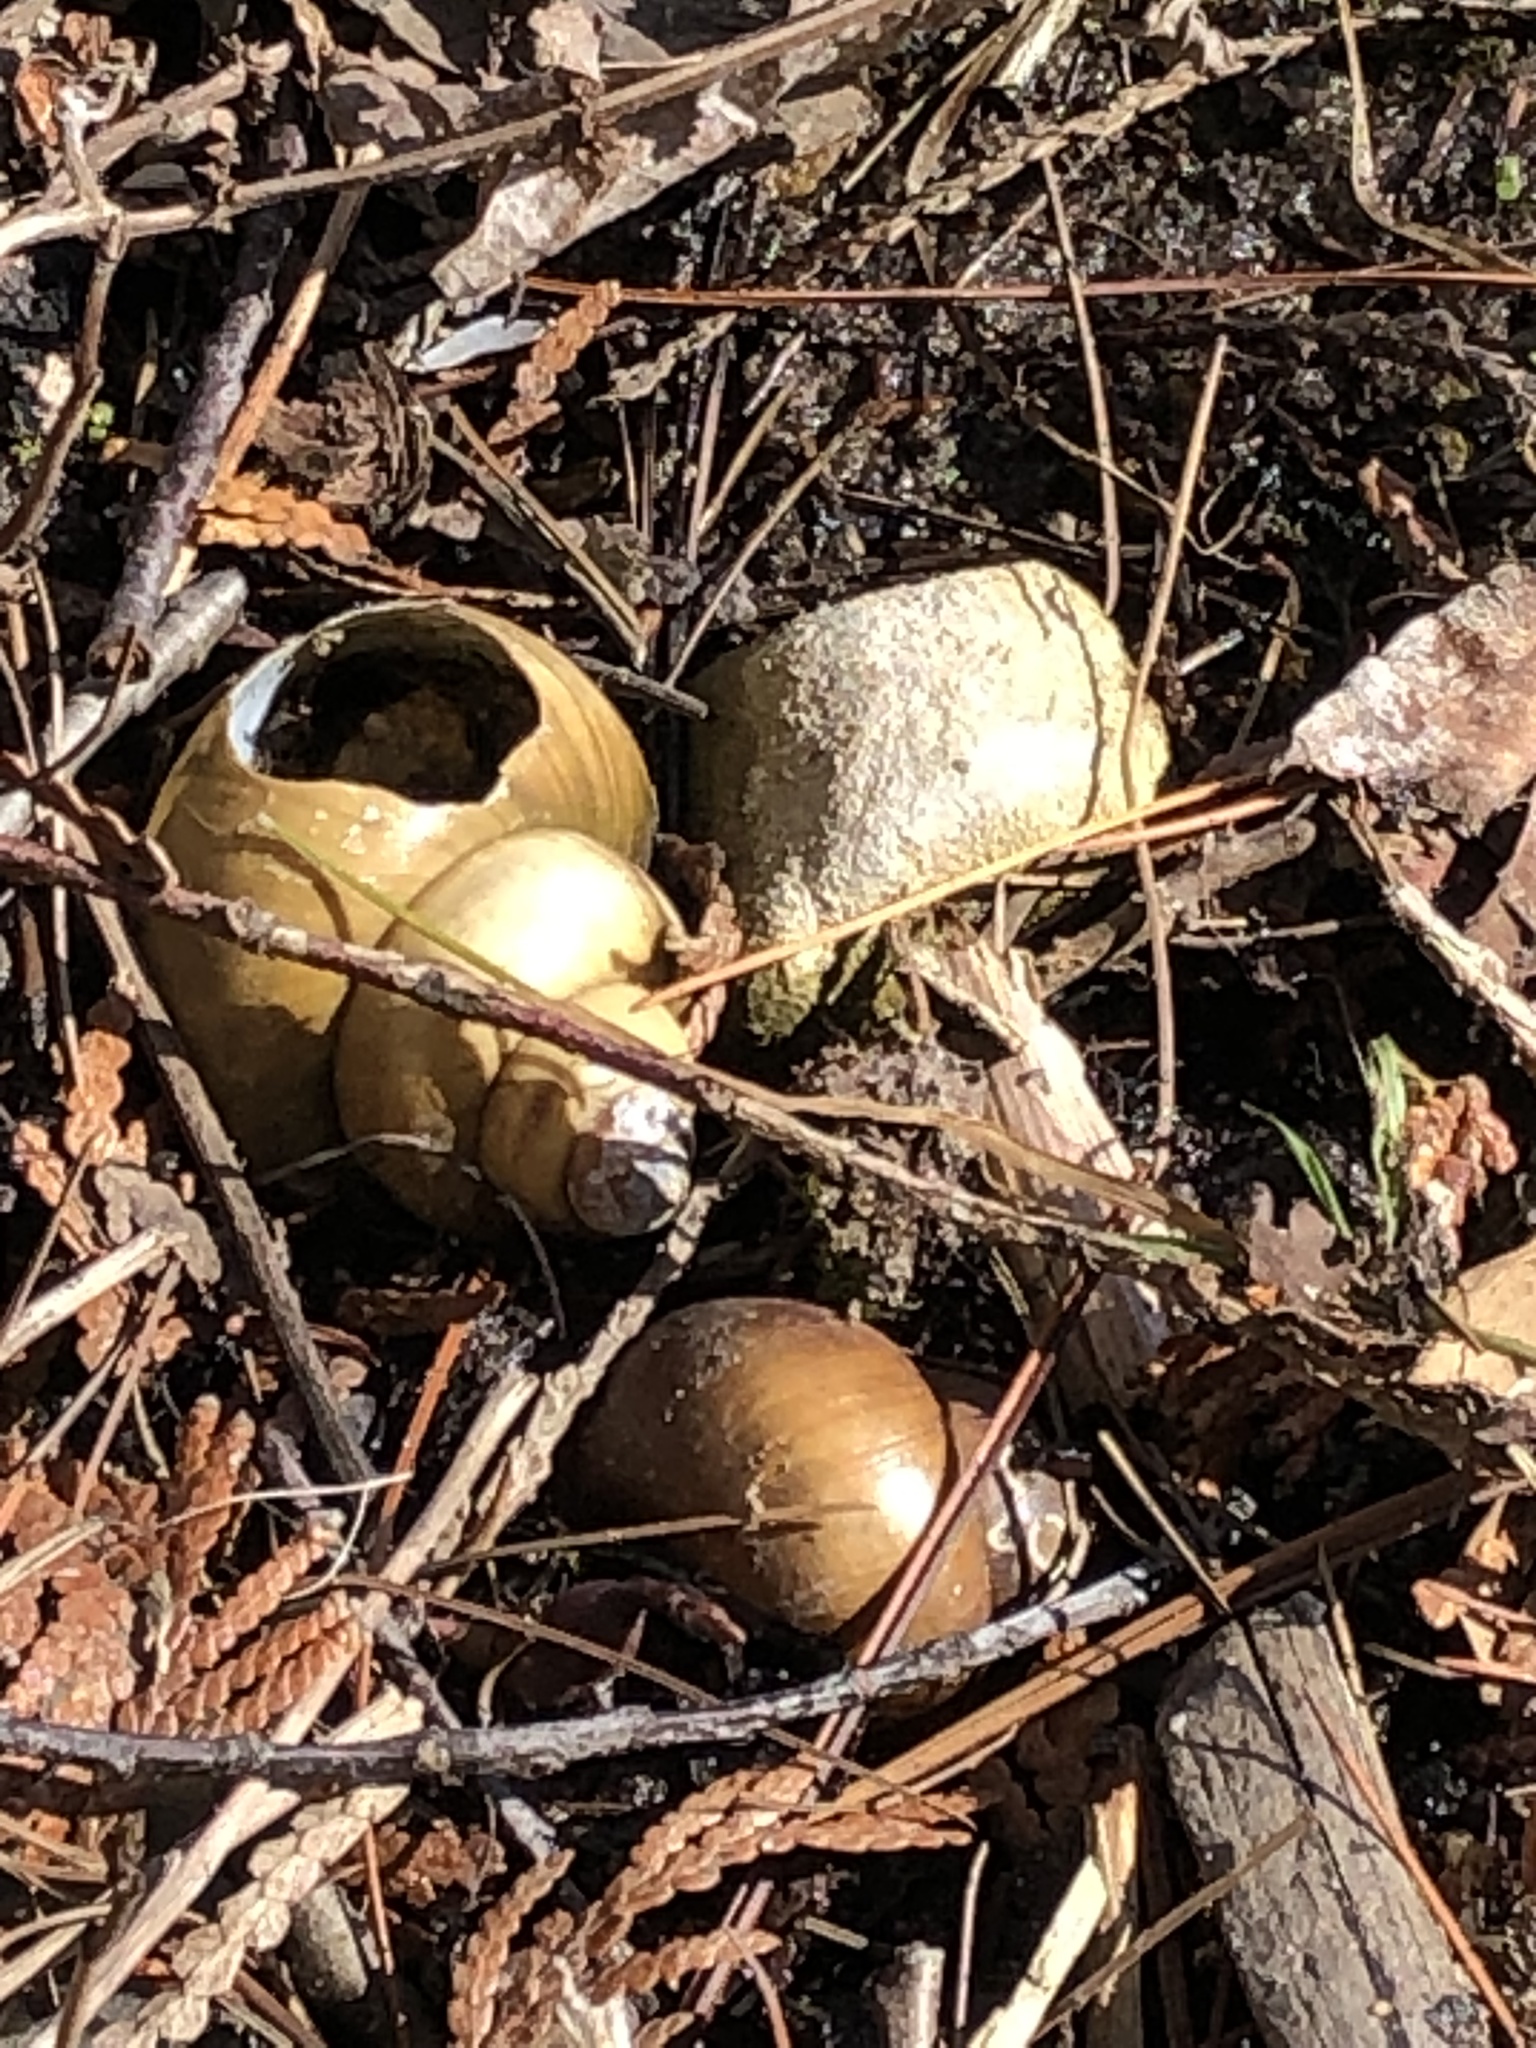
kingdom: Animalia
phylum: Mollusca
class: Gastropoda
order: Architaenioglossa
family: Viviparidae
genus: Cipangopaludina
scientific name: Cipangopaludina chinensis
